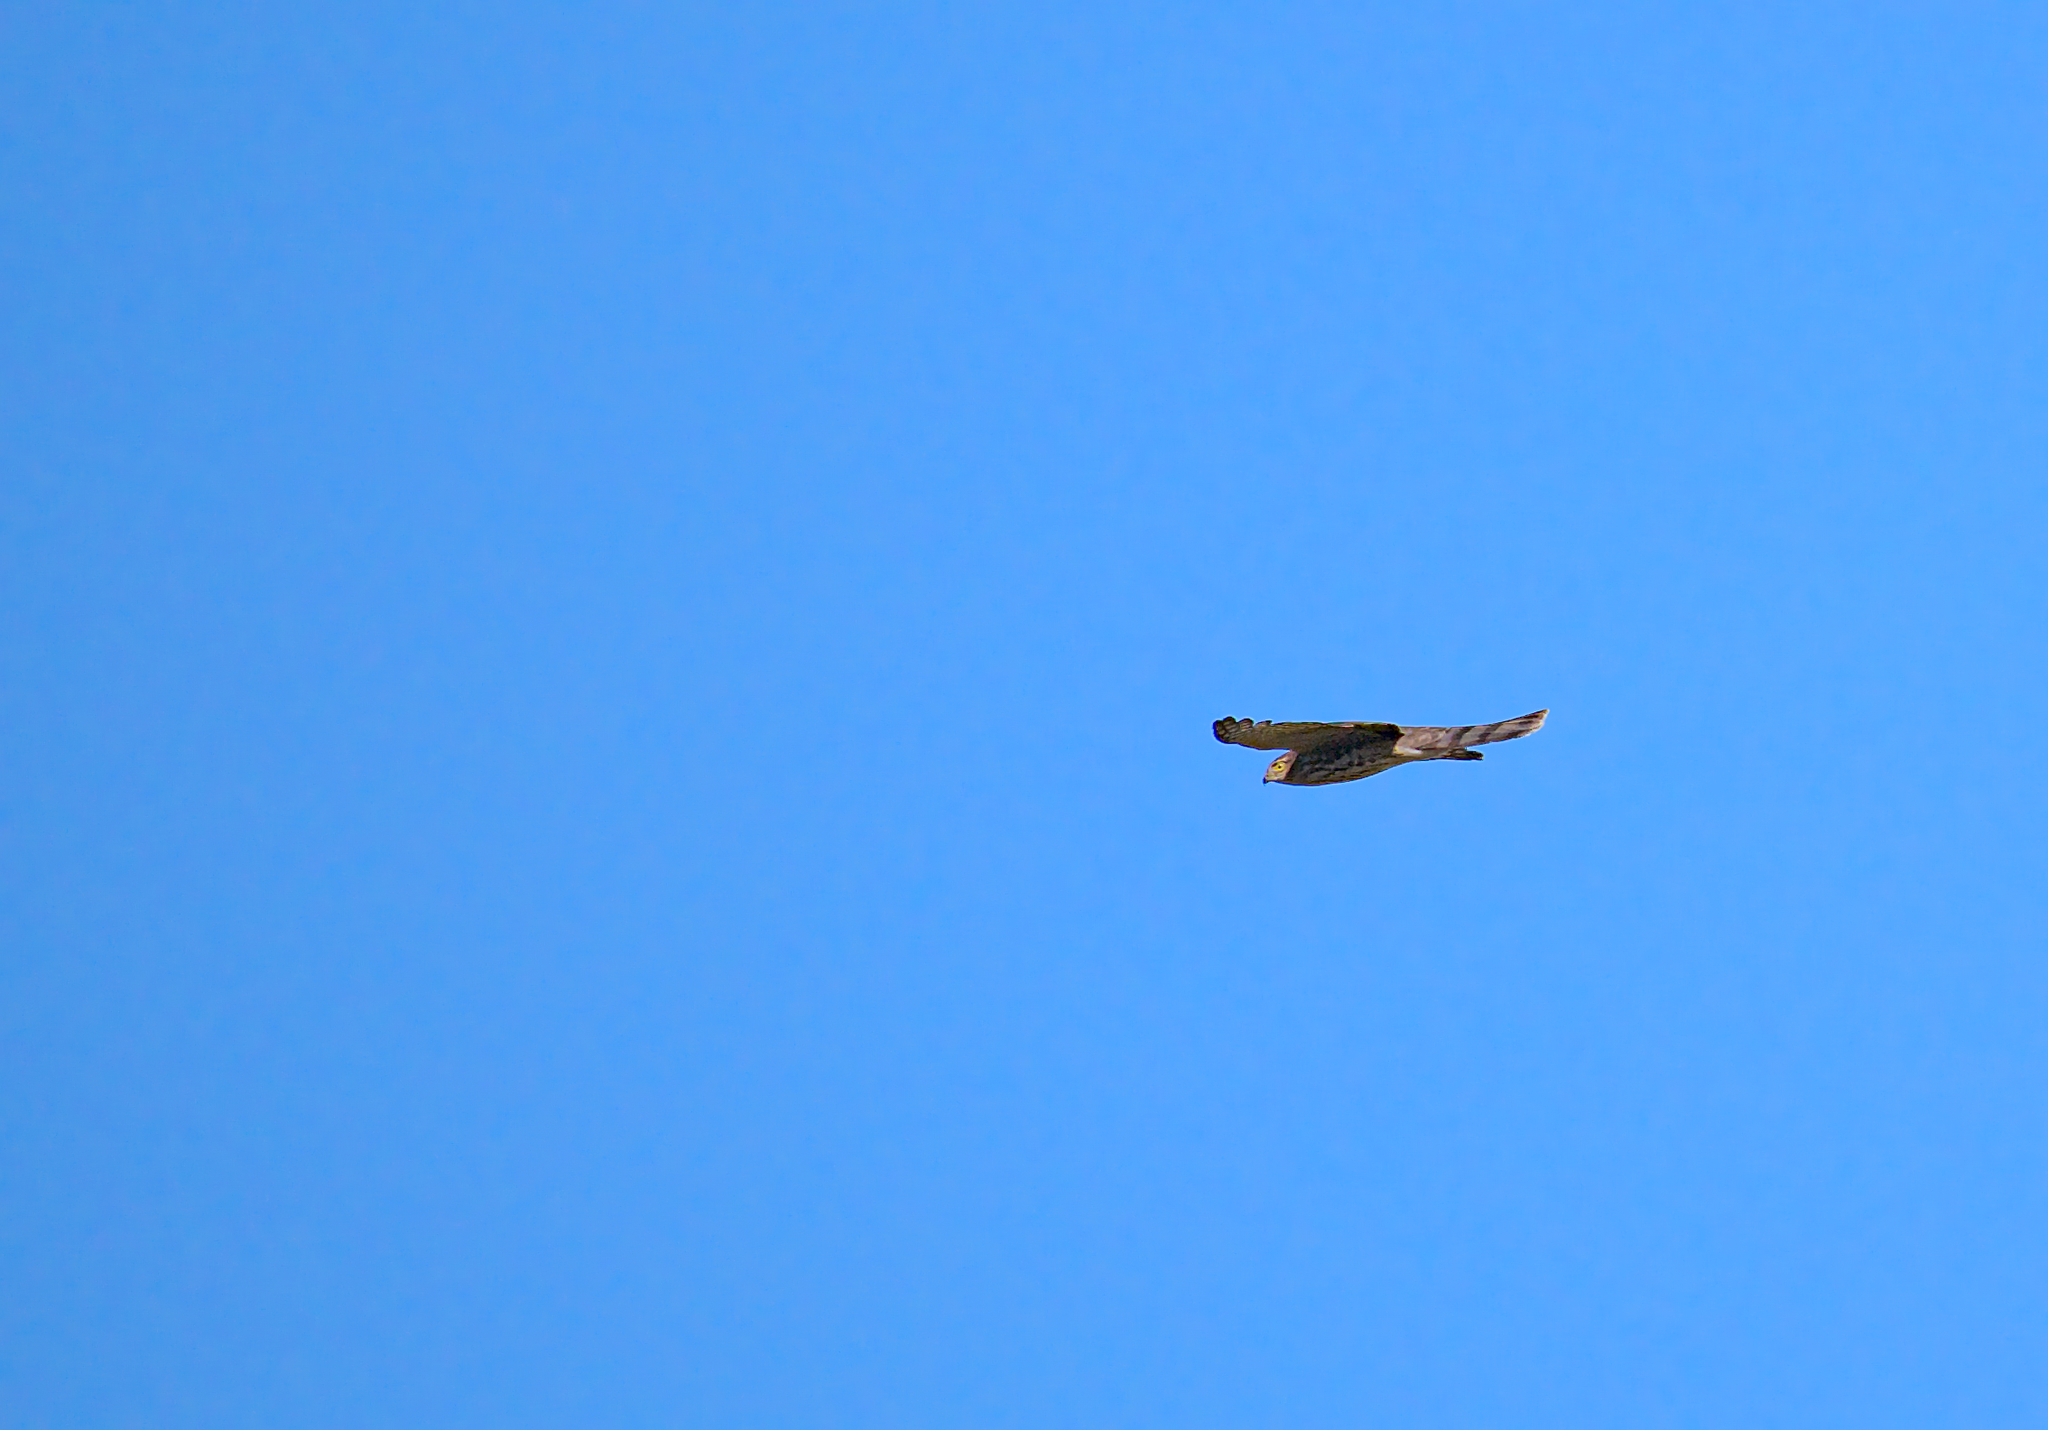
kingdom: Animalia
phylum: Chordata
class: Aves
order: Accipitriformes
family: Accipitridae
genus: Accipiter
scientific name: Accipiter striatus
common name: Sharp-shinned hawk
